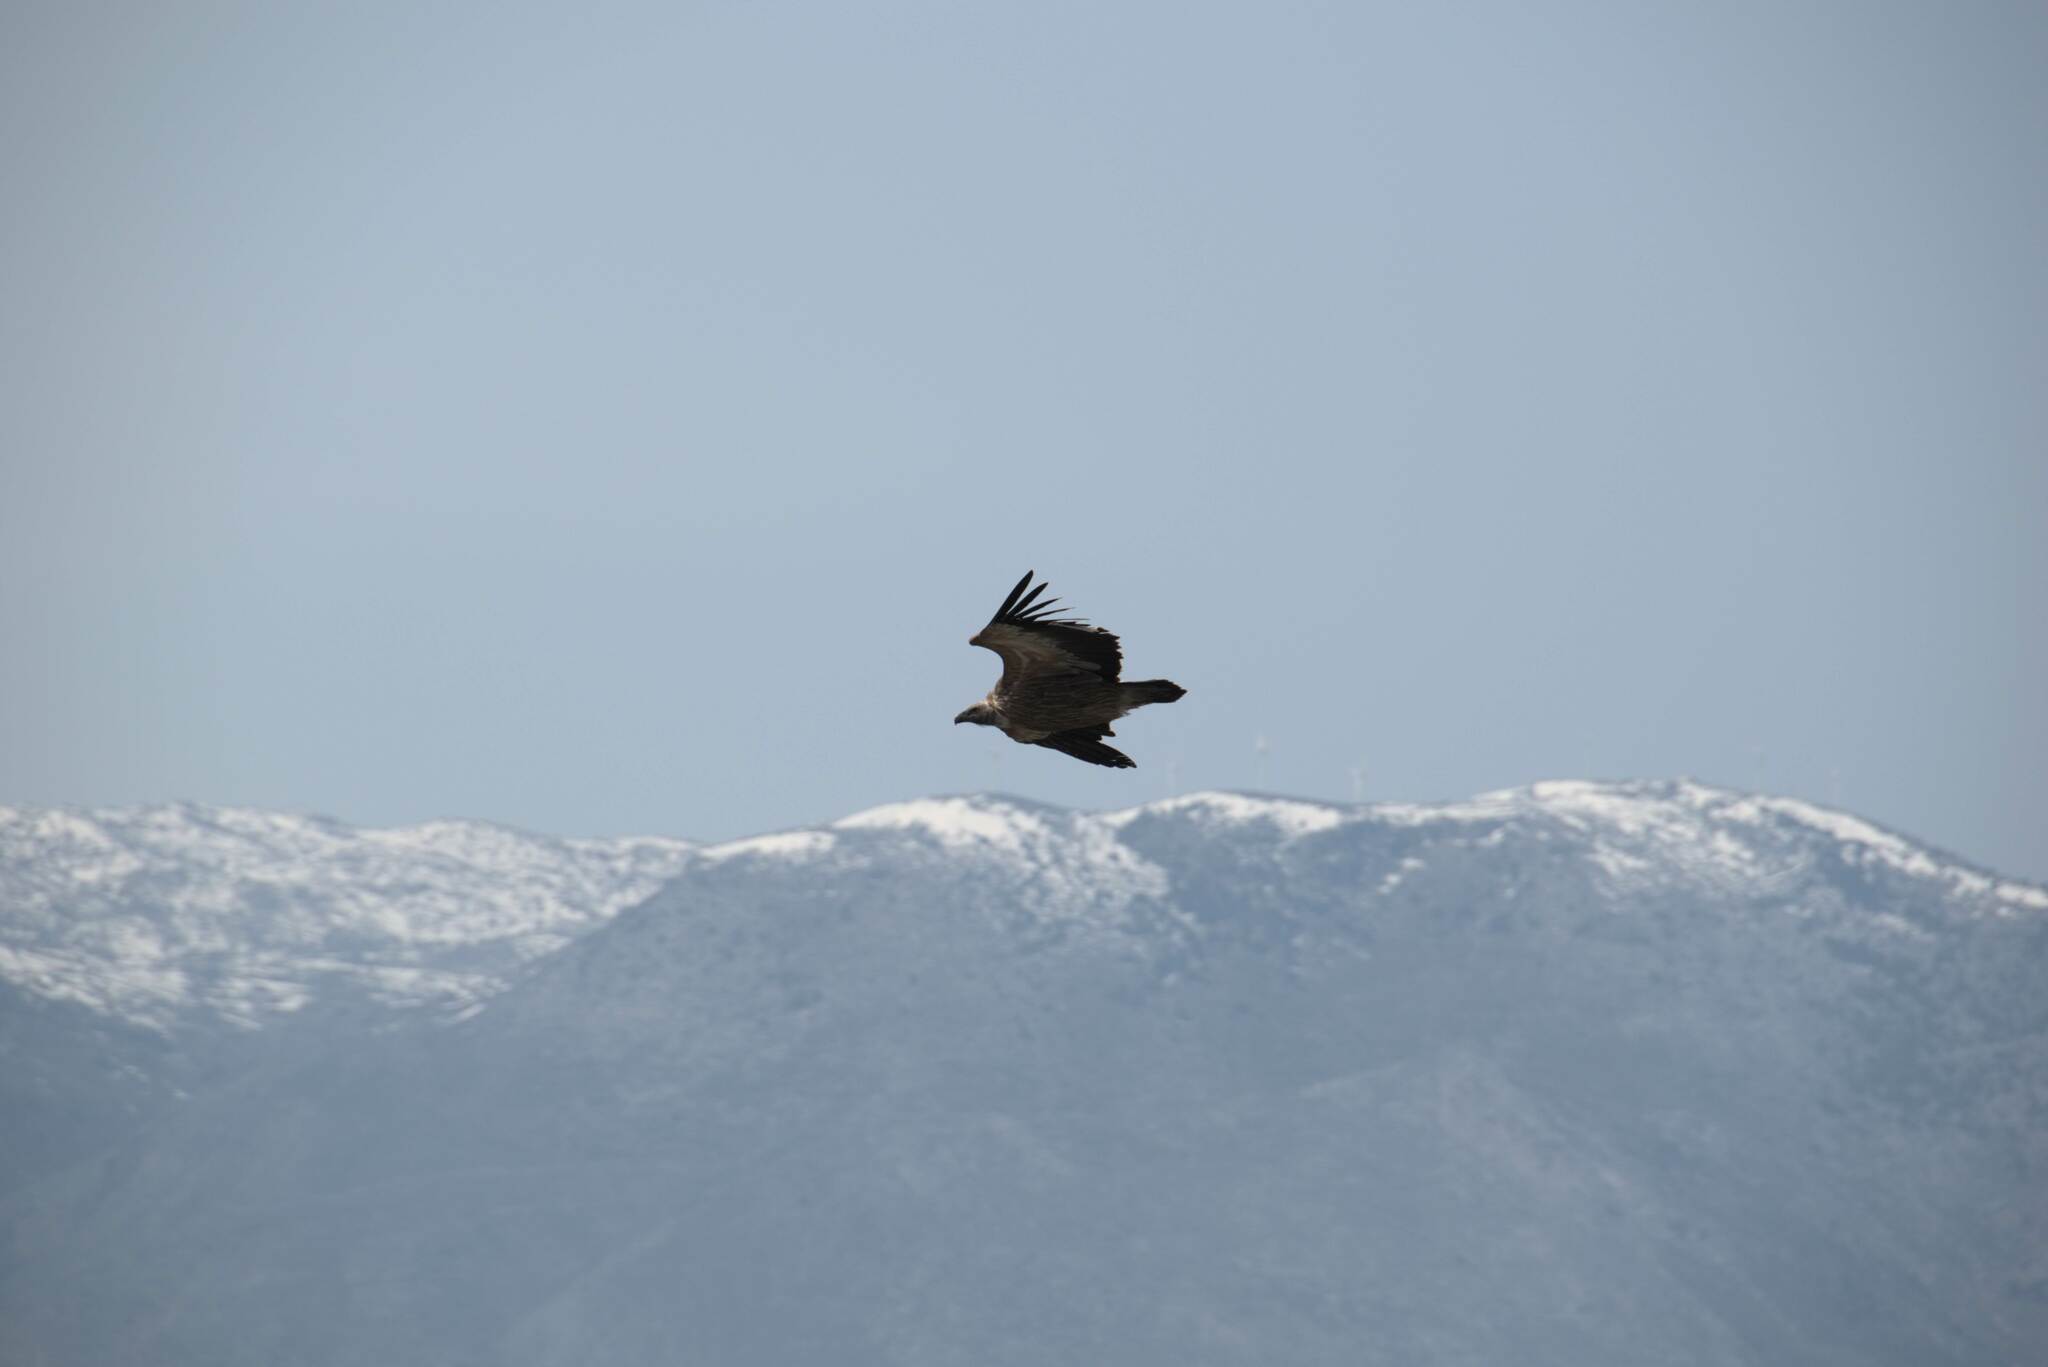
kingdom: Animalia
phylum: Chordata
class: Aves
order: Accipitriformes
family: Accipitridae
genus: Gyps
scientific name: Gyps fulvus
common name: Griffon vulture
